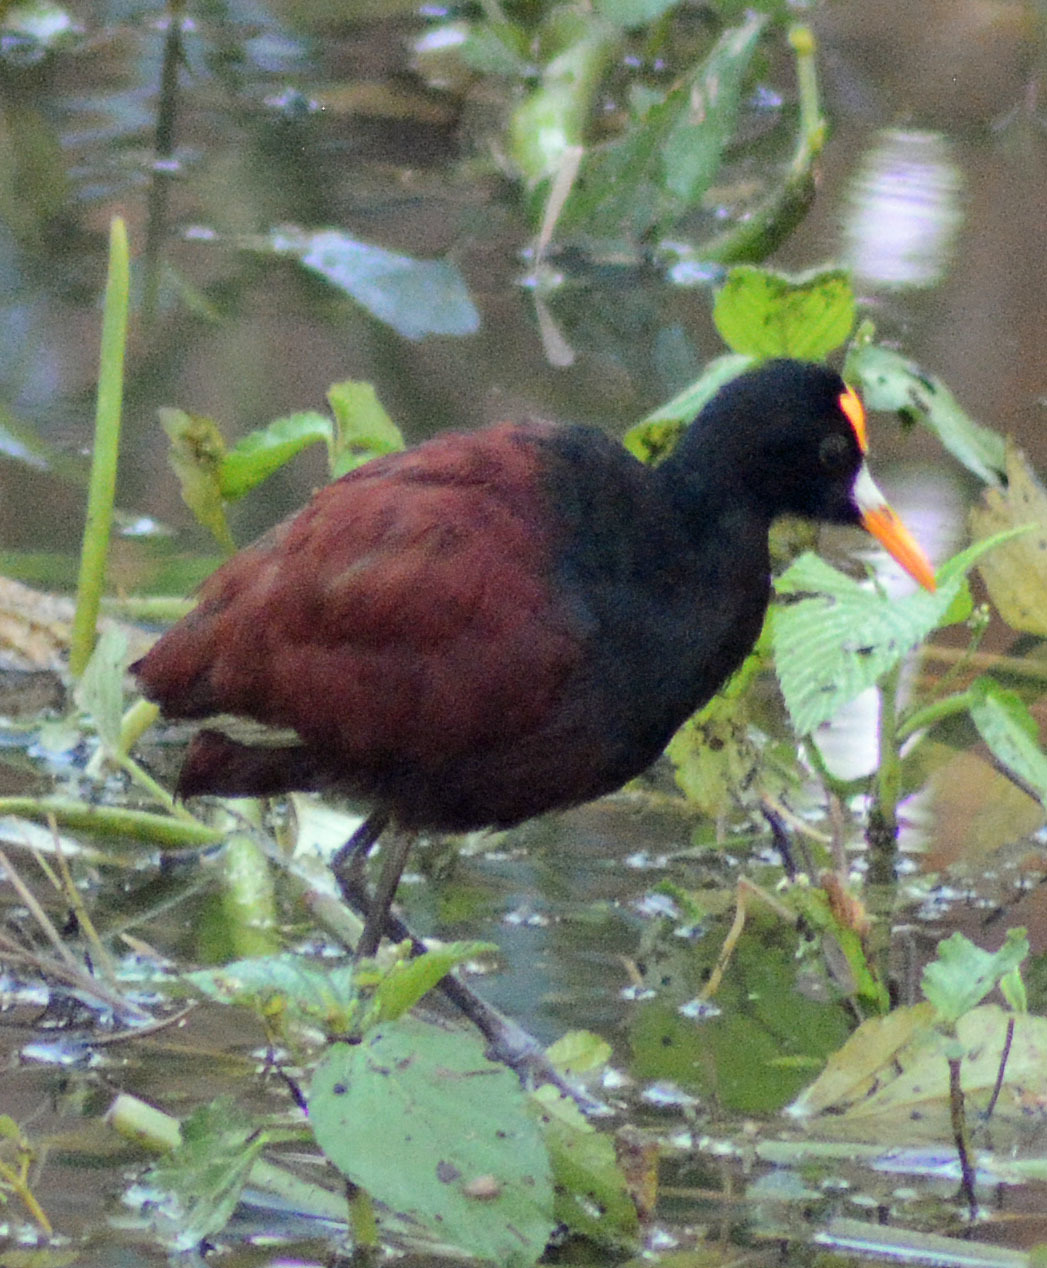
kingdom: Animalia
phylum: Chordata
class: Aves
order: Charadriiformes
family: Jacanidae
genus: Jacana
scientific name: Jacana spinosa
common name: Northern jacana
